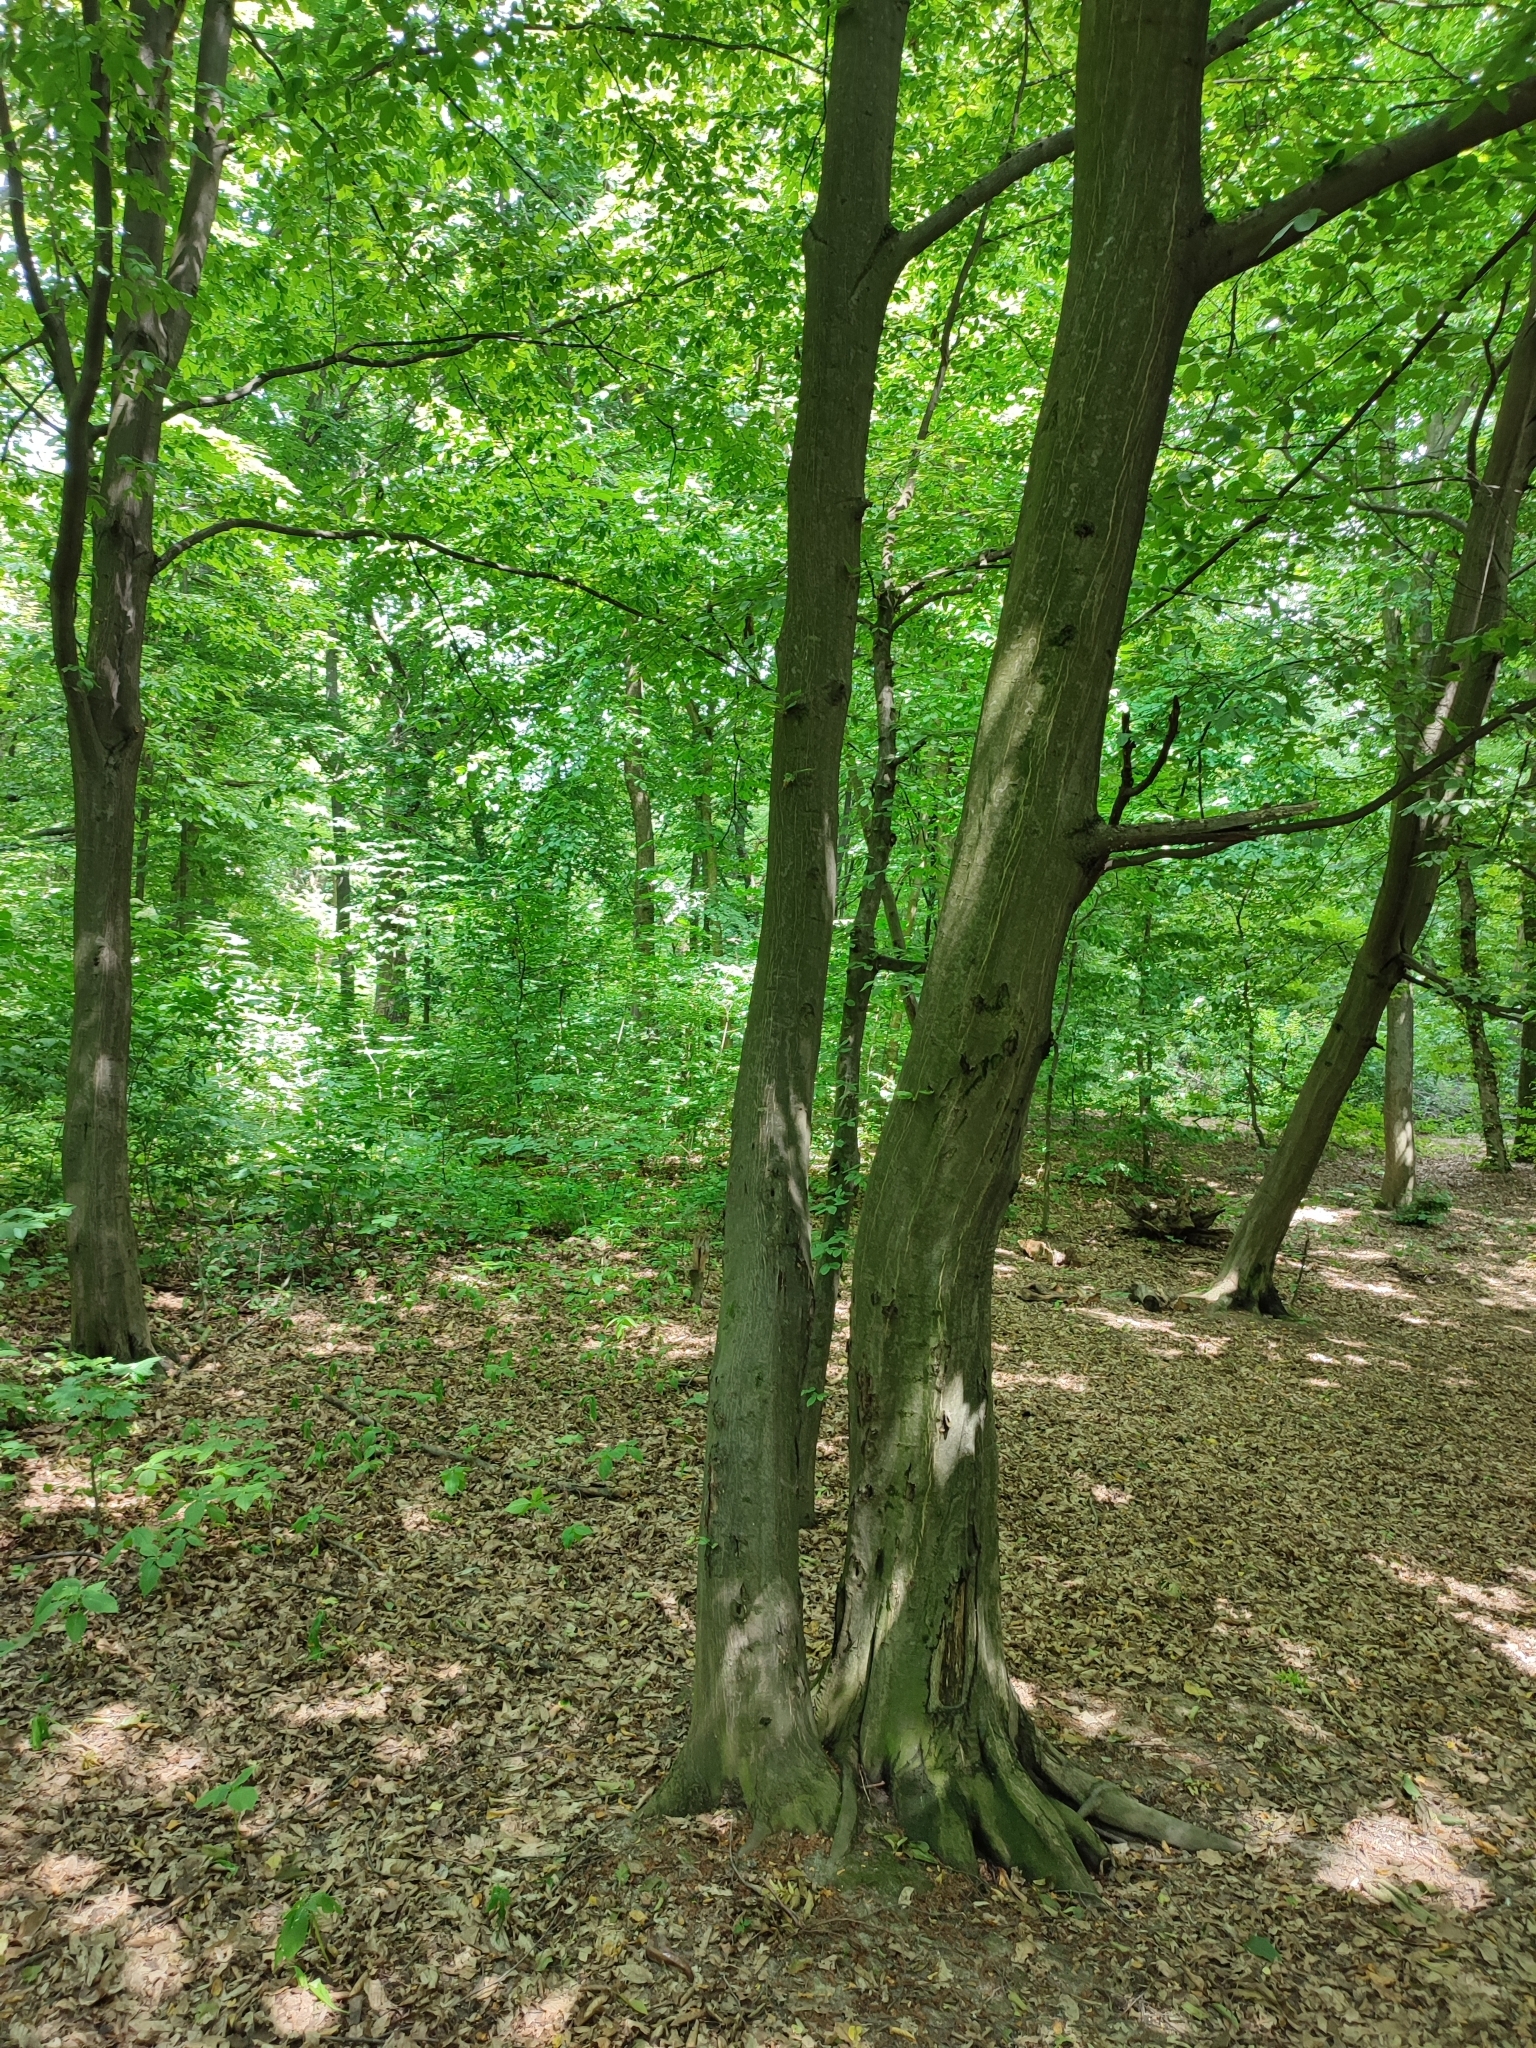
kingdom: Plantae
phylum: Tracheophyta
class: Magnoliopsida
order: Fagales
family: Betulaceae
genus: Carpinus
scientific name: Carpinus betulus
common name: Hornbeam
